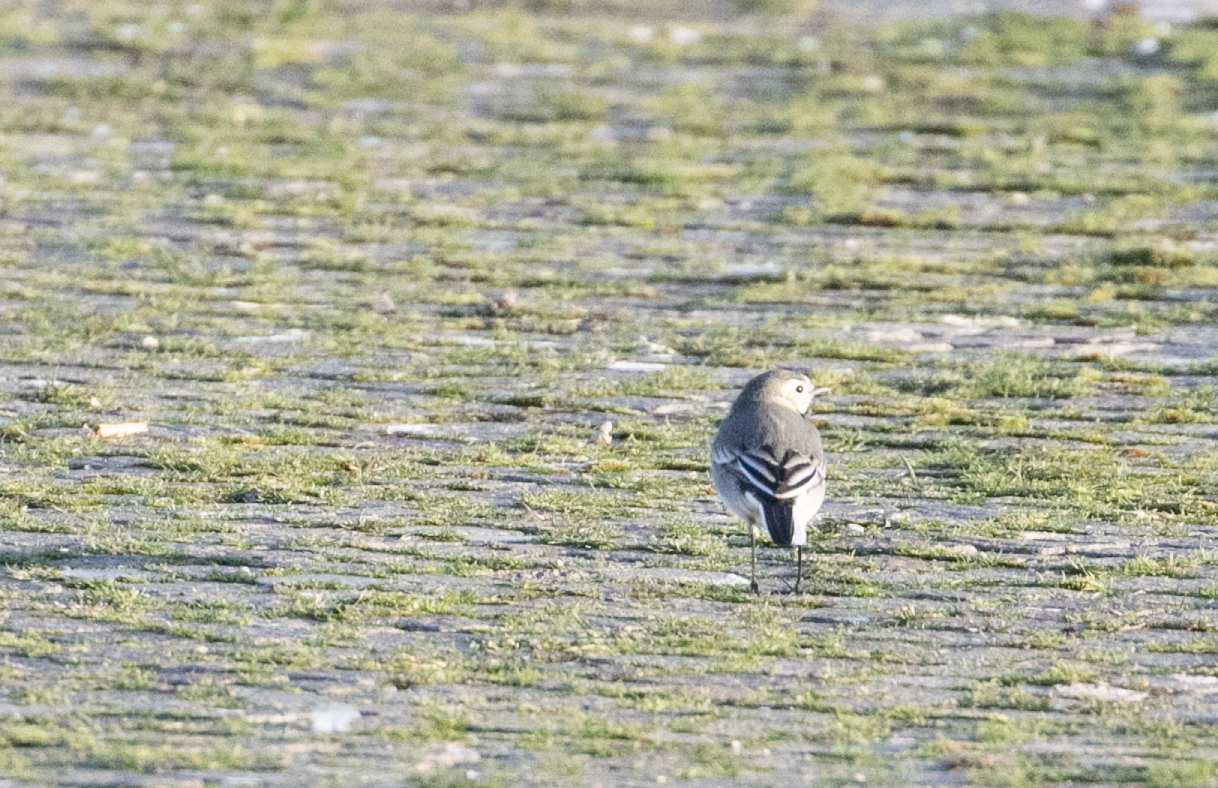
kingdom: Animalia
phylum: Chordata
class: Aves
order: Passeriformes
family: Motacillidae
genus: Motacilla
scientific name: Motacilla alba
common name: White wagtail
